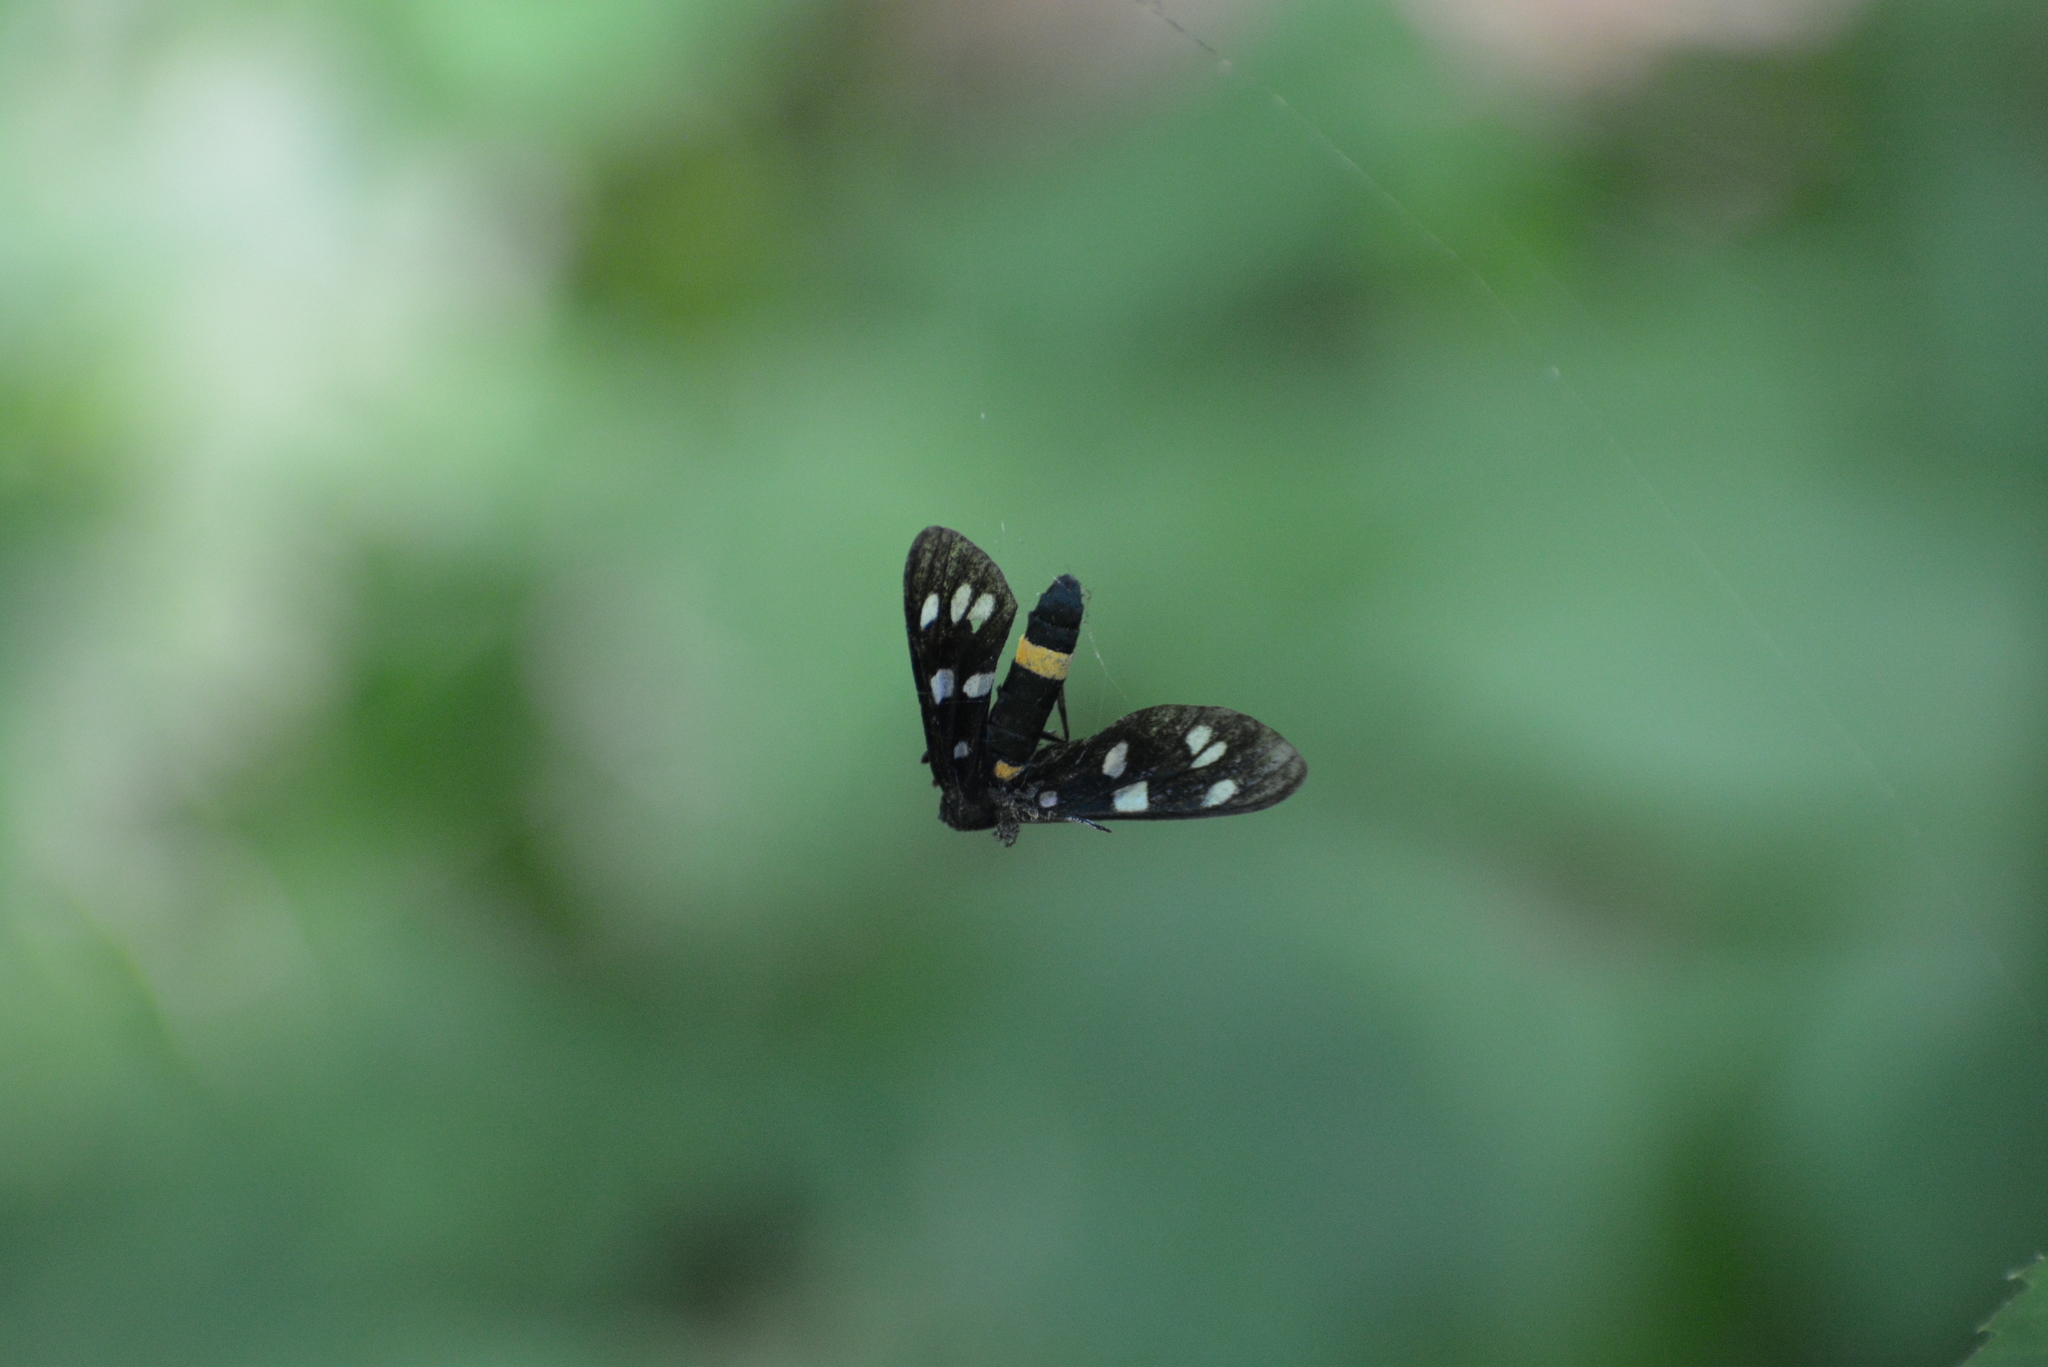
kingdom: Animalia
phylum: Arthropoda
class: Insecta
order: Lepidoptera
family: Erebidae
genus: Amata
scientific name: Amata phegea
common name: Nine-spotted
